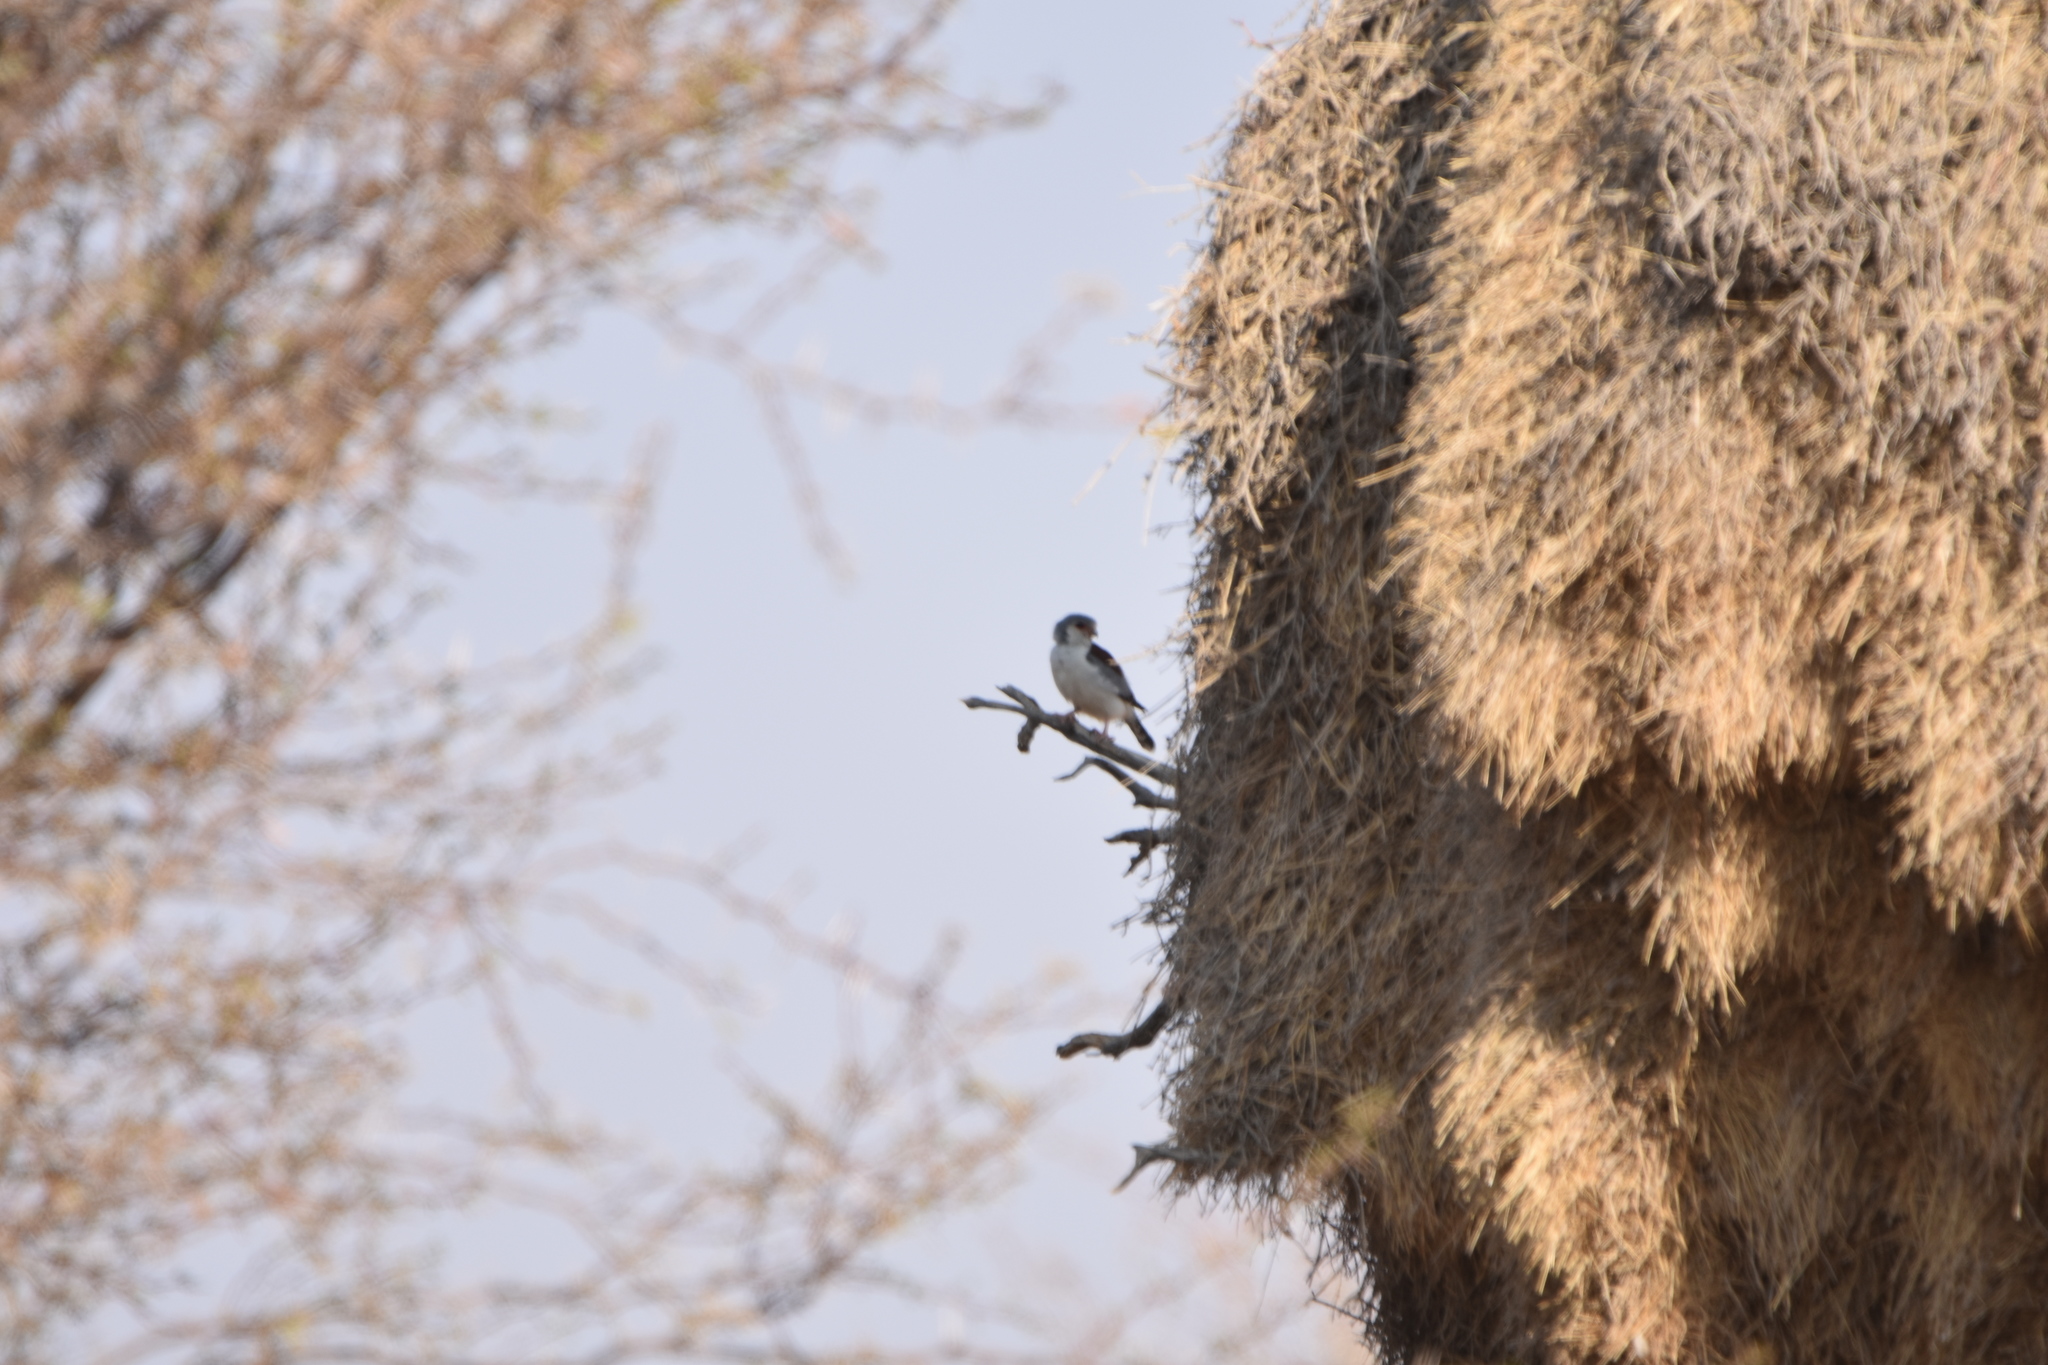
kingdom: Animalia
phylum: Chordata
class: Aves
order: Falconiformes
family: Falconidae
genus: Polihierax
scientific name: Polihierax semitorquatus
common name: Pygmy falcon
